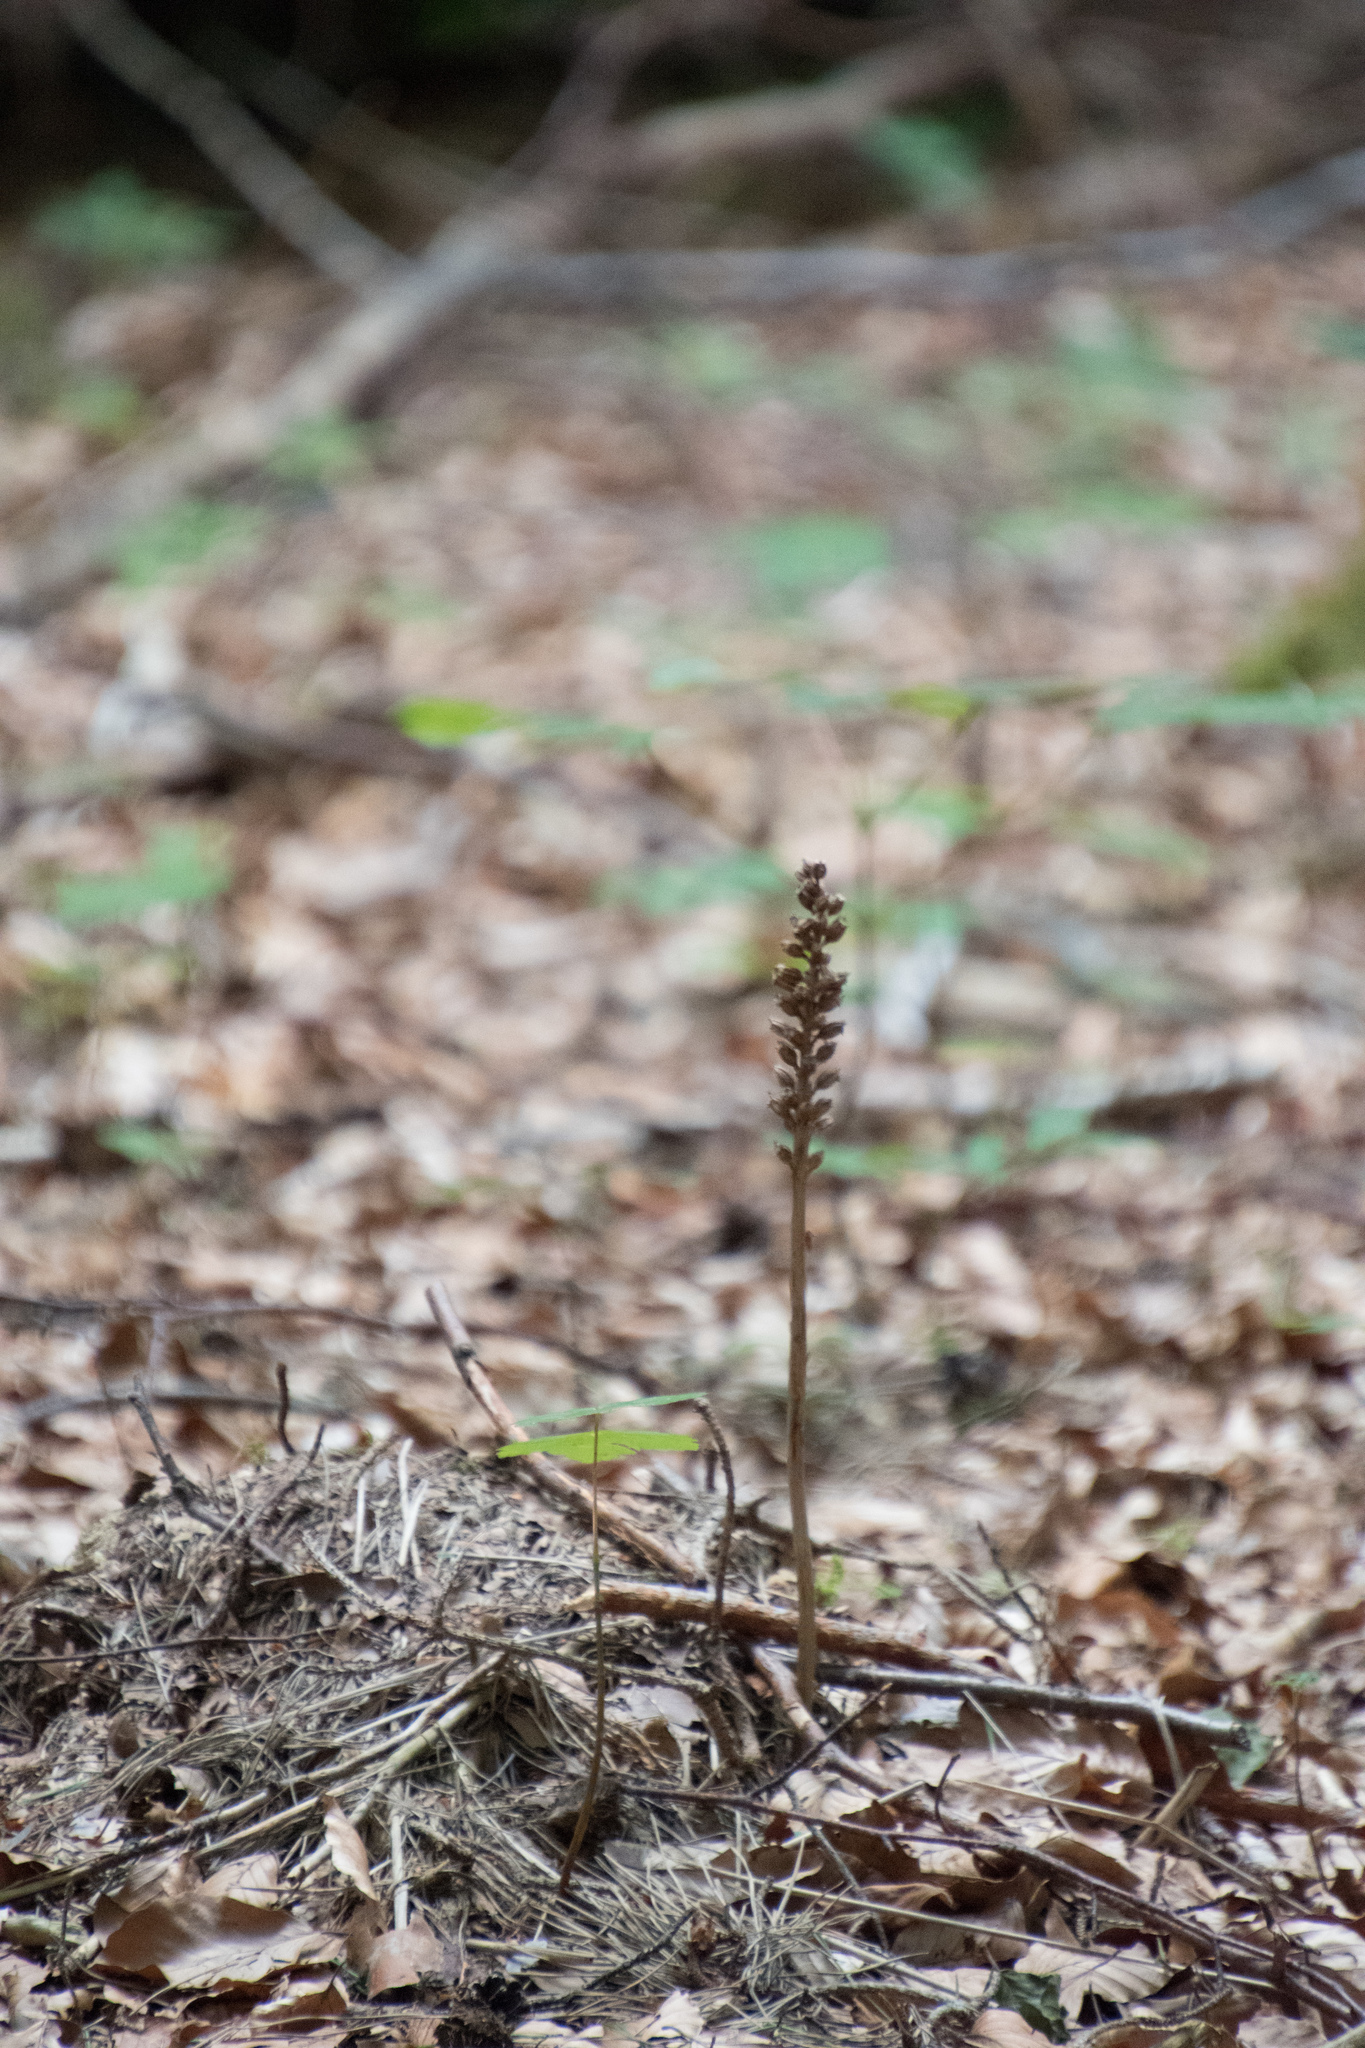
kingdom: Plantae
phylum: Tracheophyta
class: Liliopsida
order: Asparagales
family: Orchidaceae
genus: Neottia
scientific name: Neottia nidus-avis
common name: Bird's-nest orchid
